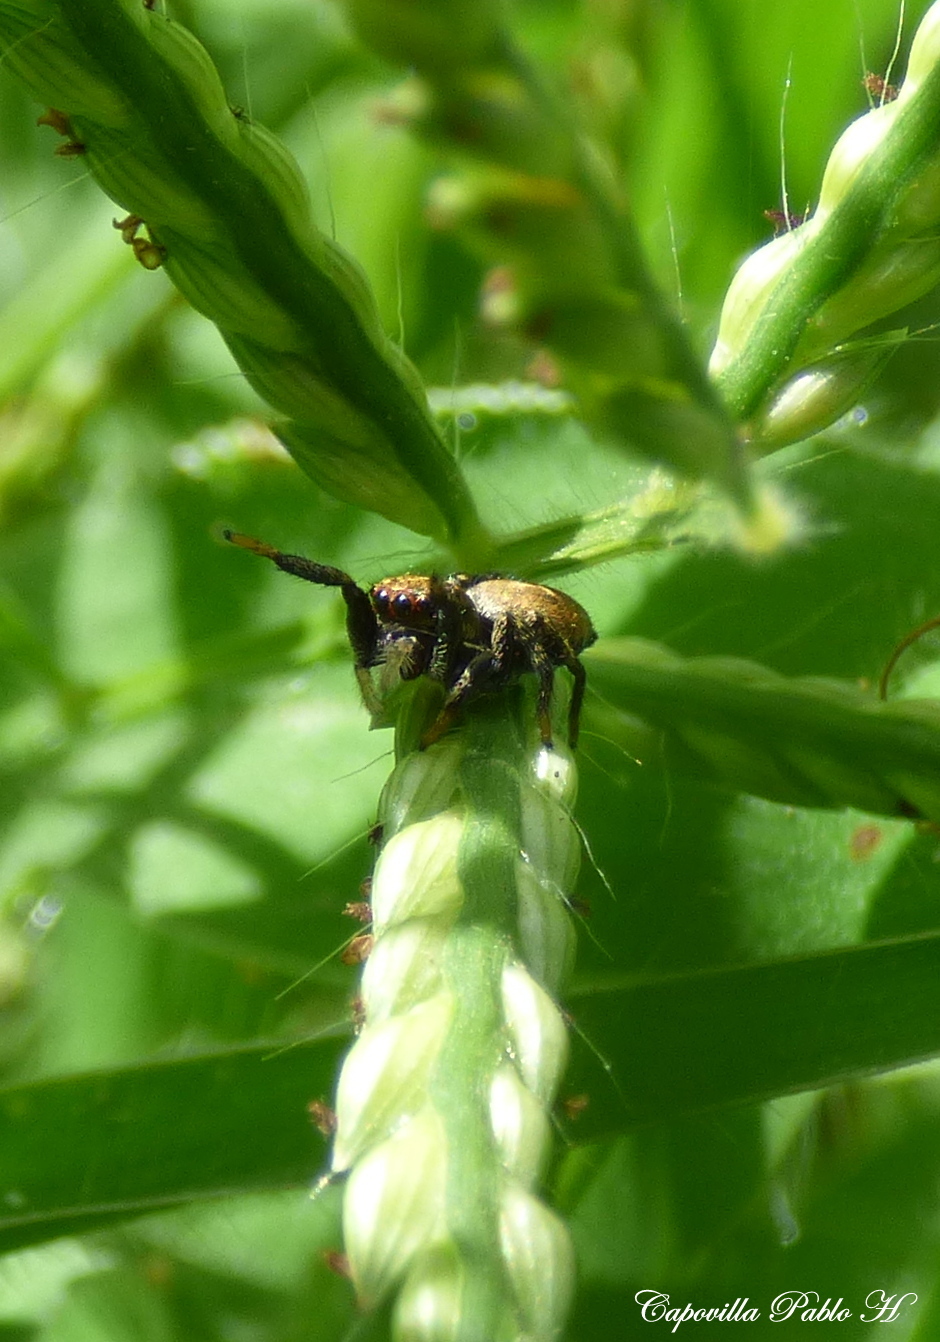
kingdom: Animalia
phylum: Arthropoda
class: Arachnida
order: Araneae
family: Salticidae
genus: Phiale
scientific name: Phiale roburifoliata
